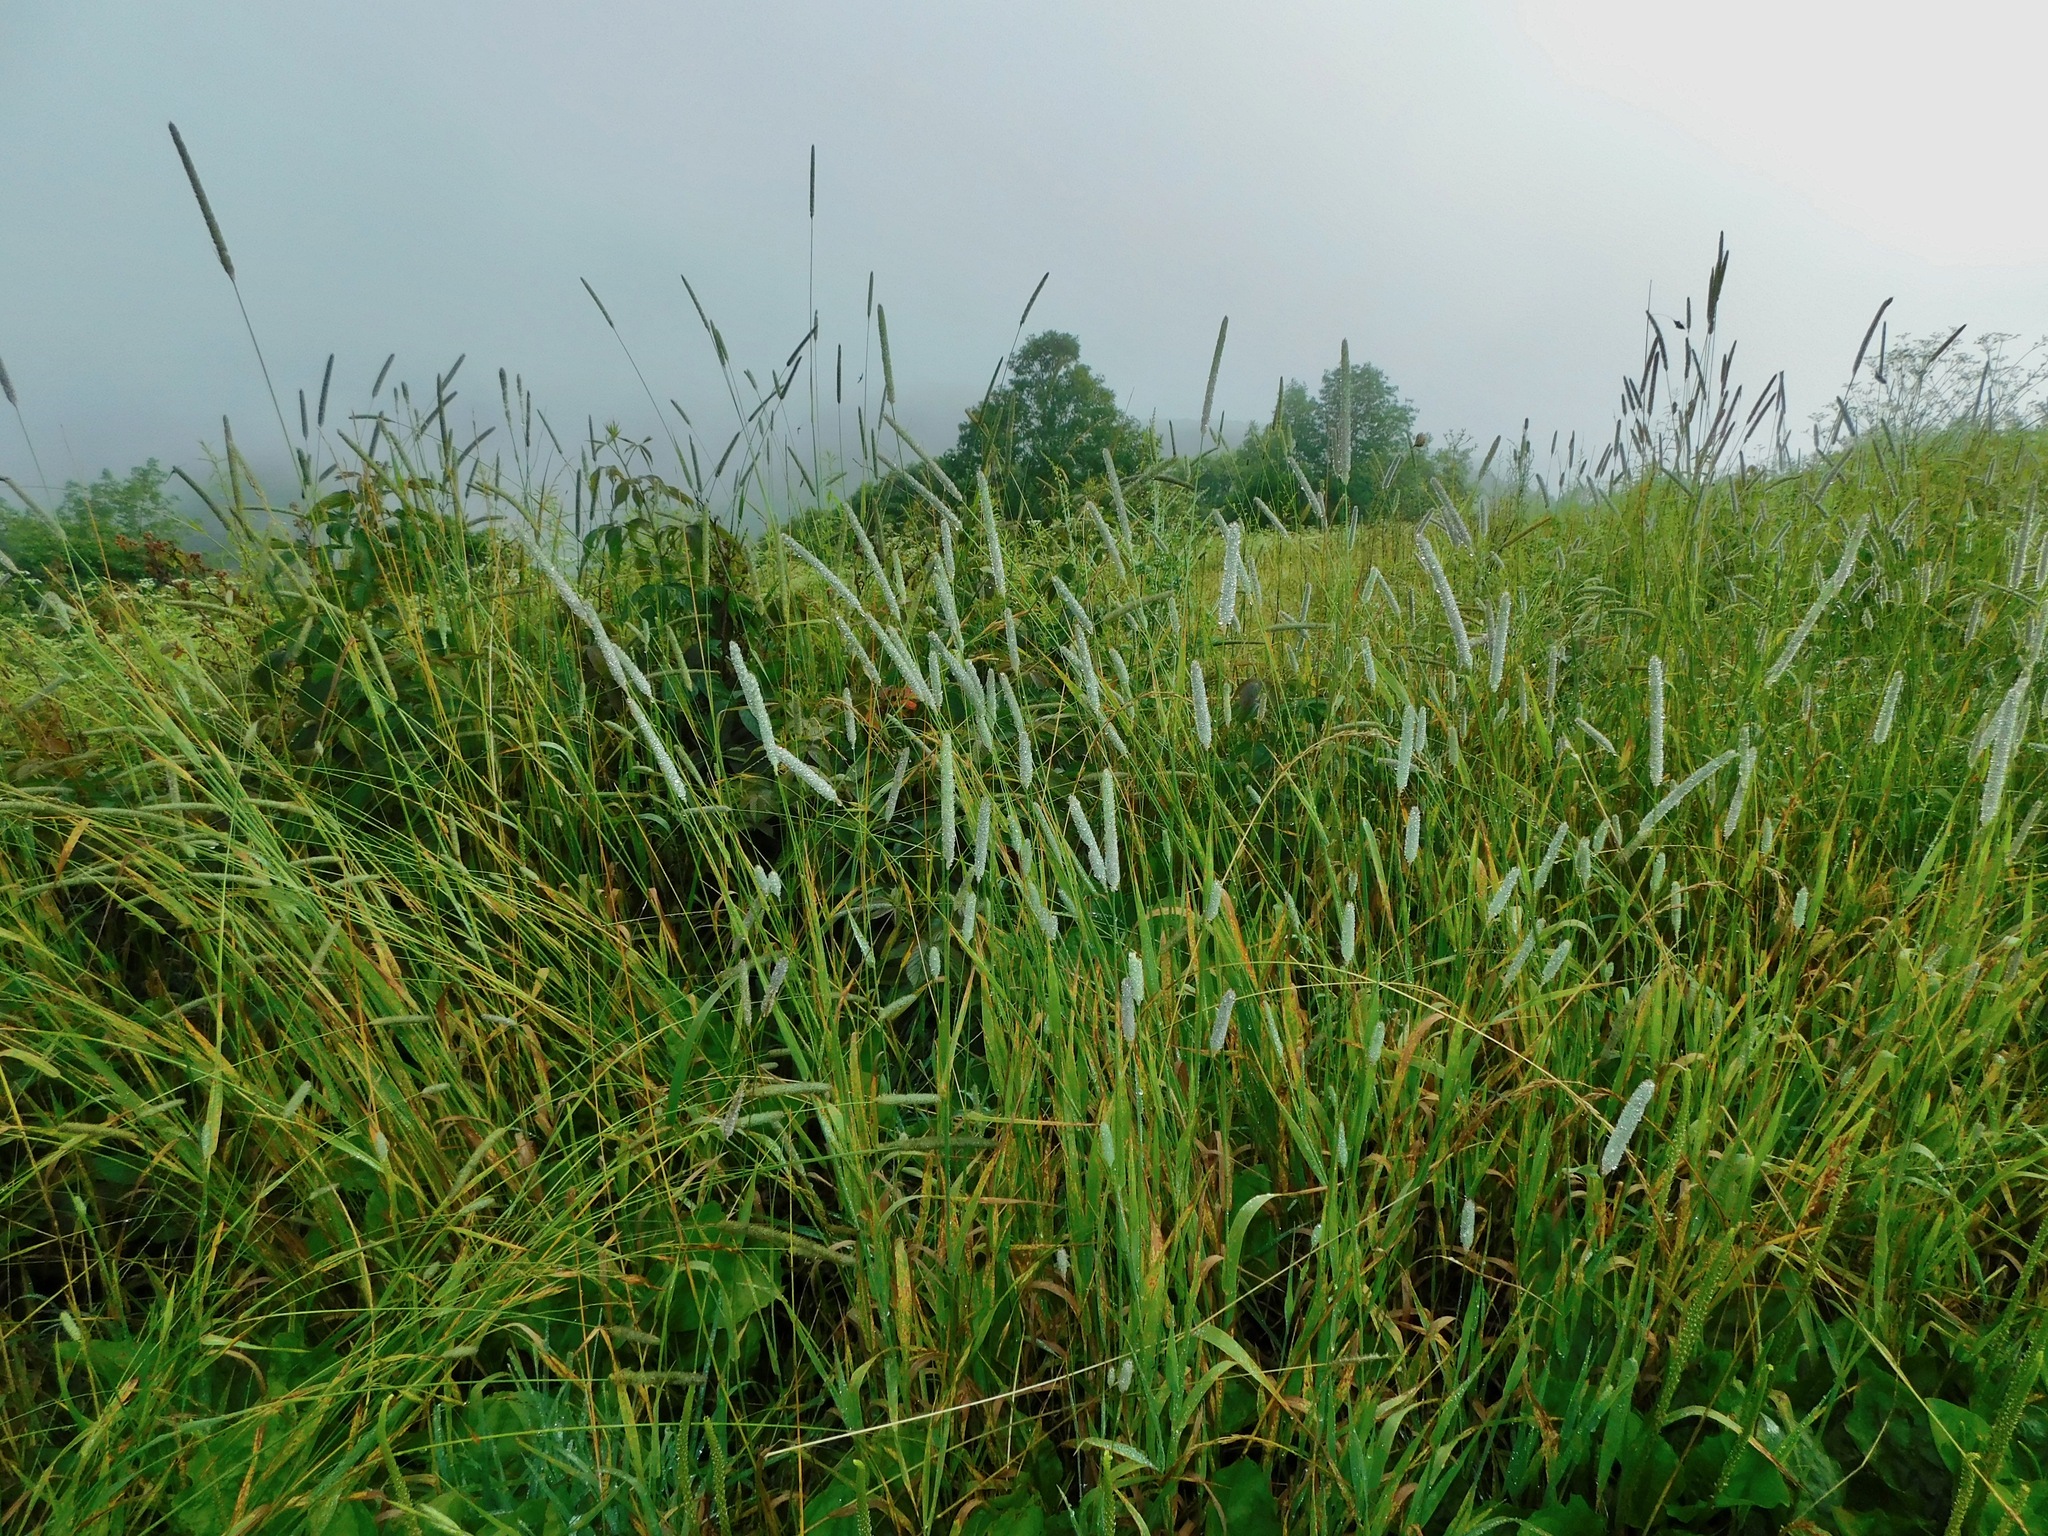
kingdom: Plantae
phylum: Tracheophyta
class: Liliopsida
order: Poales
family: Poaceae
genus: Phleum
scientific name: Phleum pratense
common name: Timothy grass
